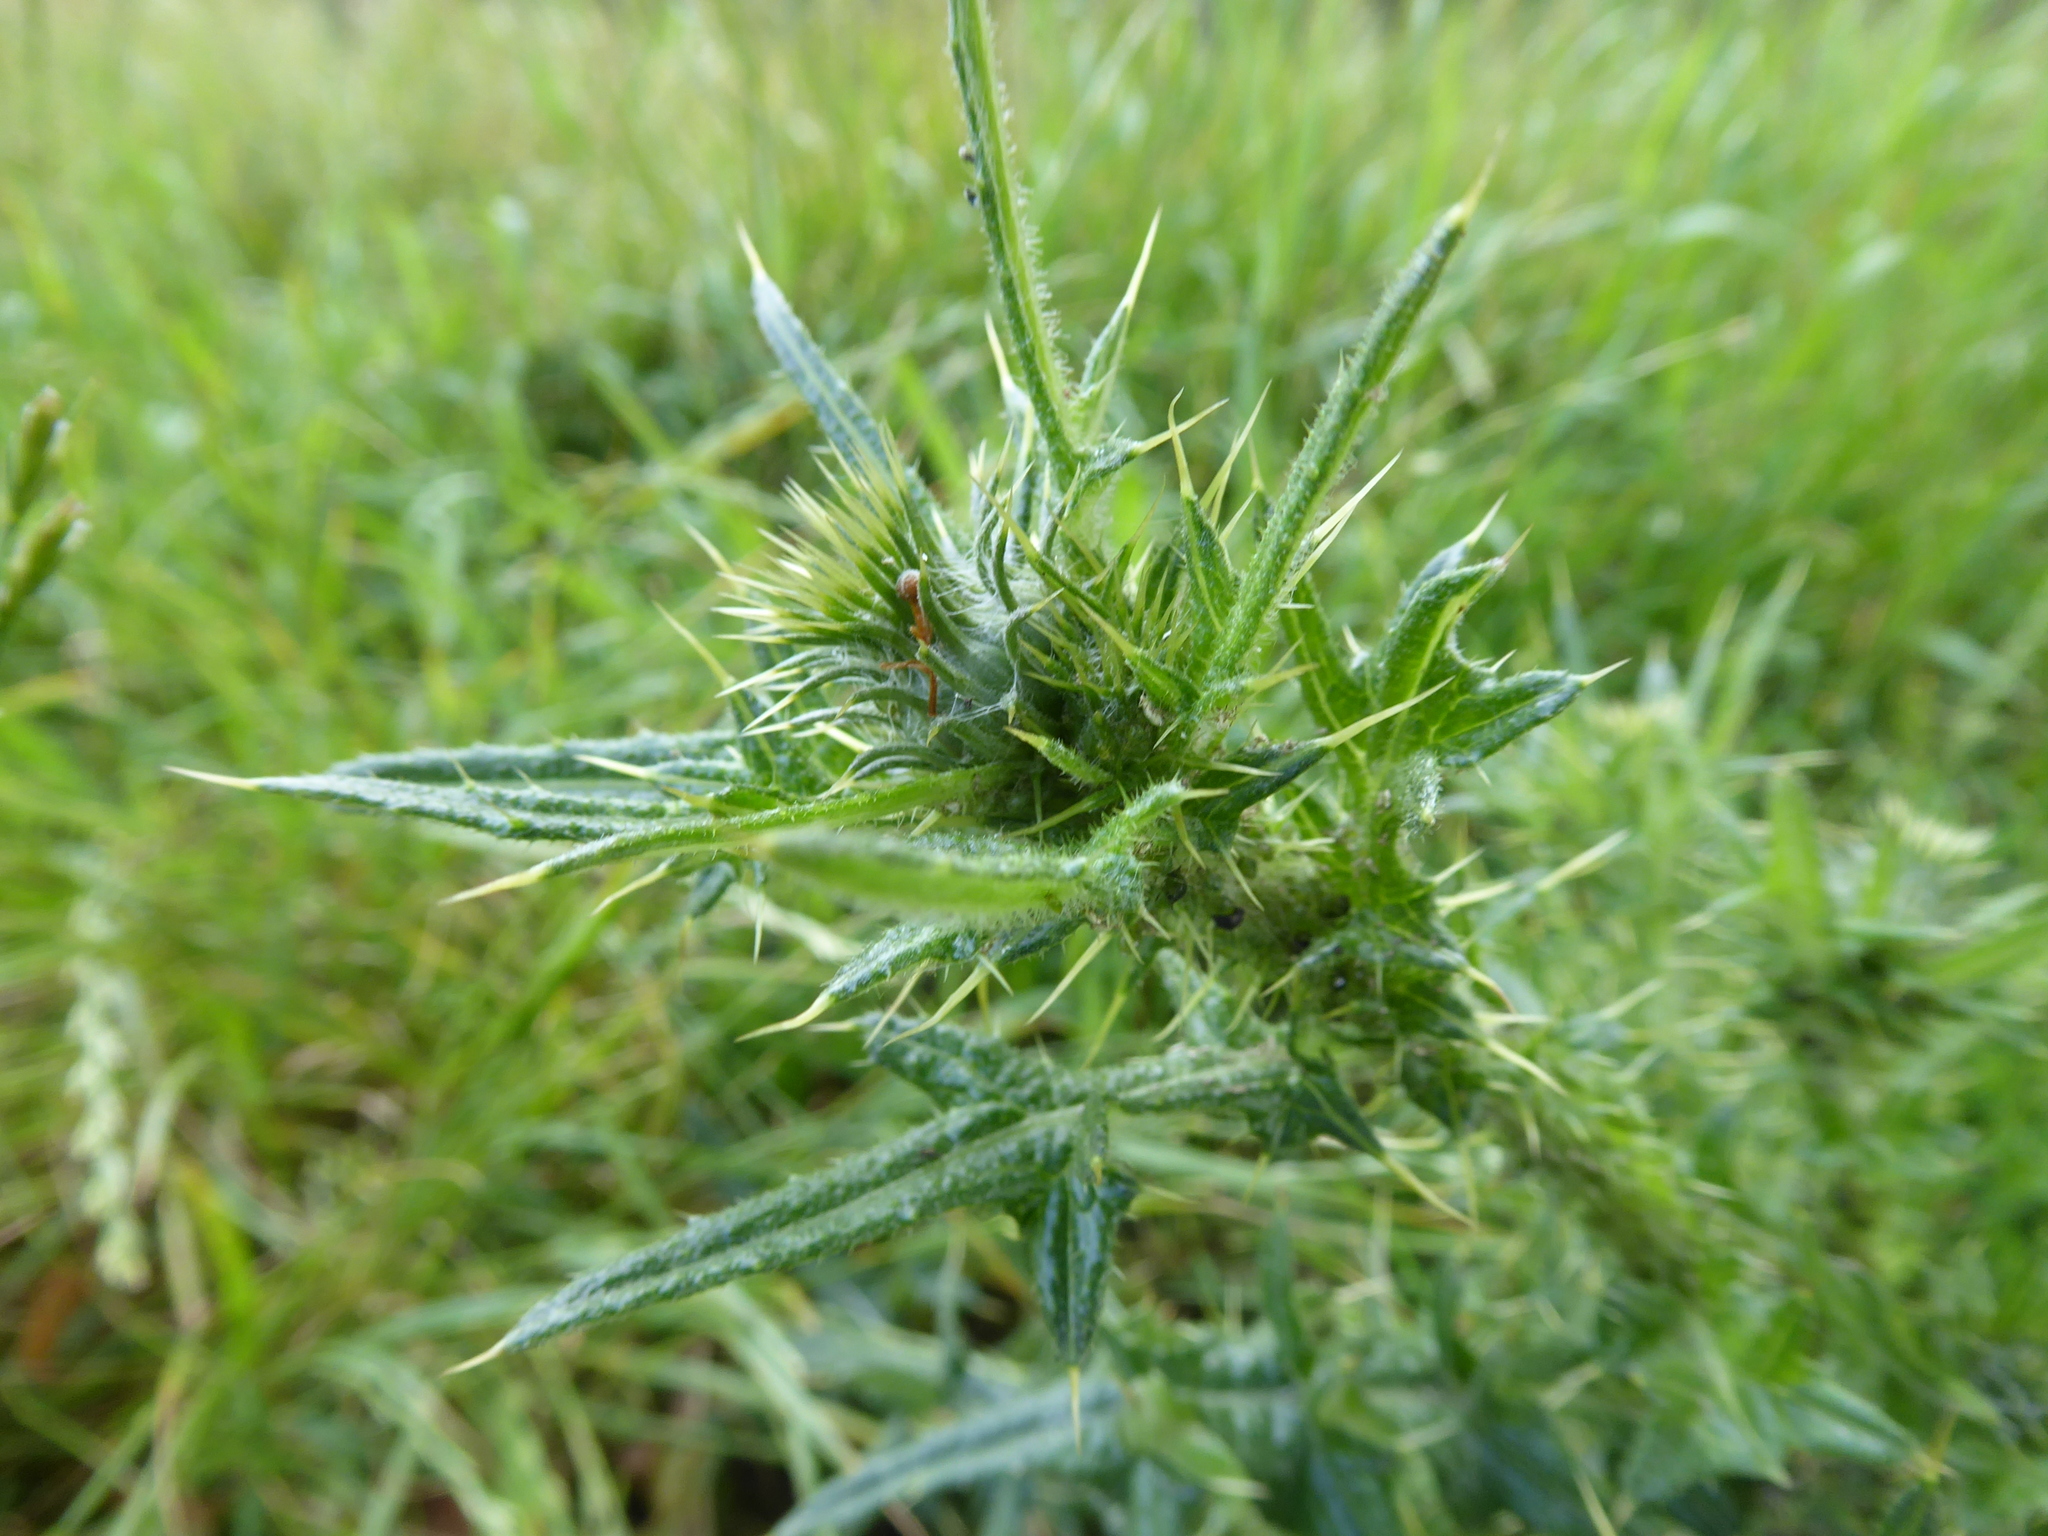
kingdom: Plantae
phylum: Tracheophyta
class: Magnoliopsida
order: Asterales
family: Asteraceae
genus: Cirsium
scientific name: Cirsium vulgare
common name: Bull thistle
